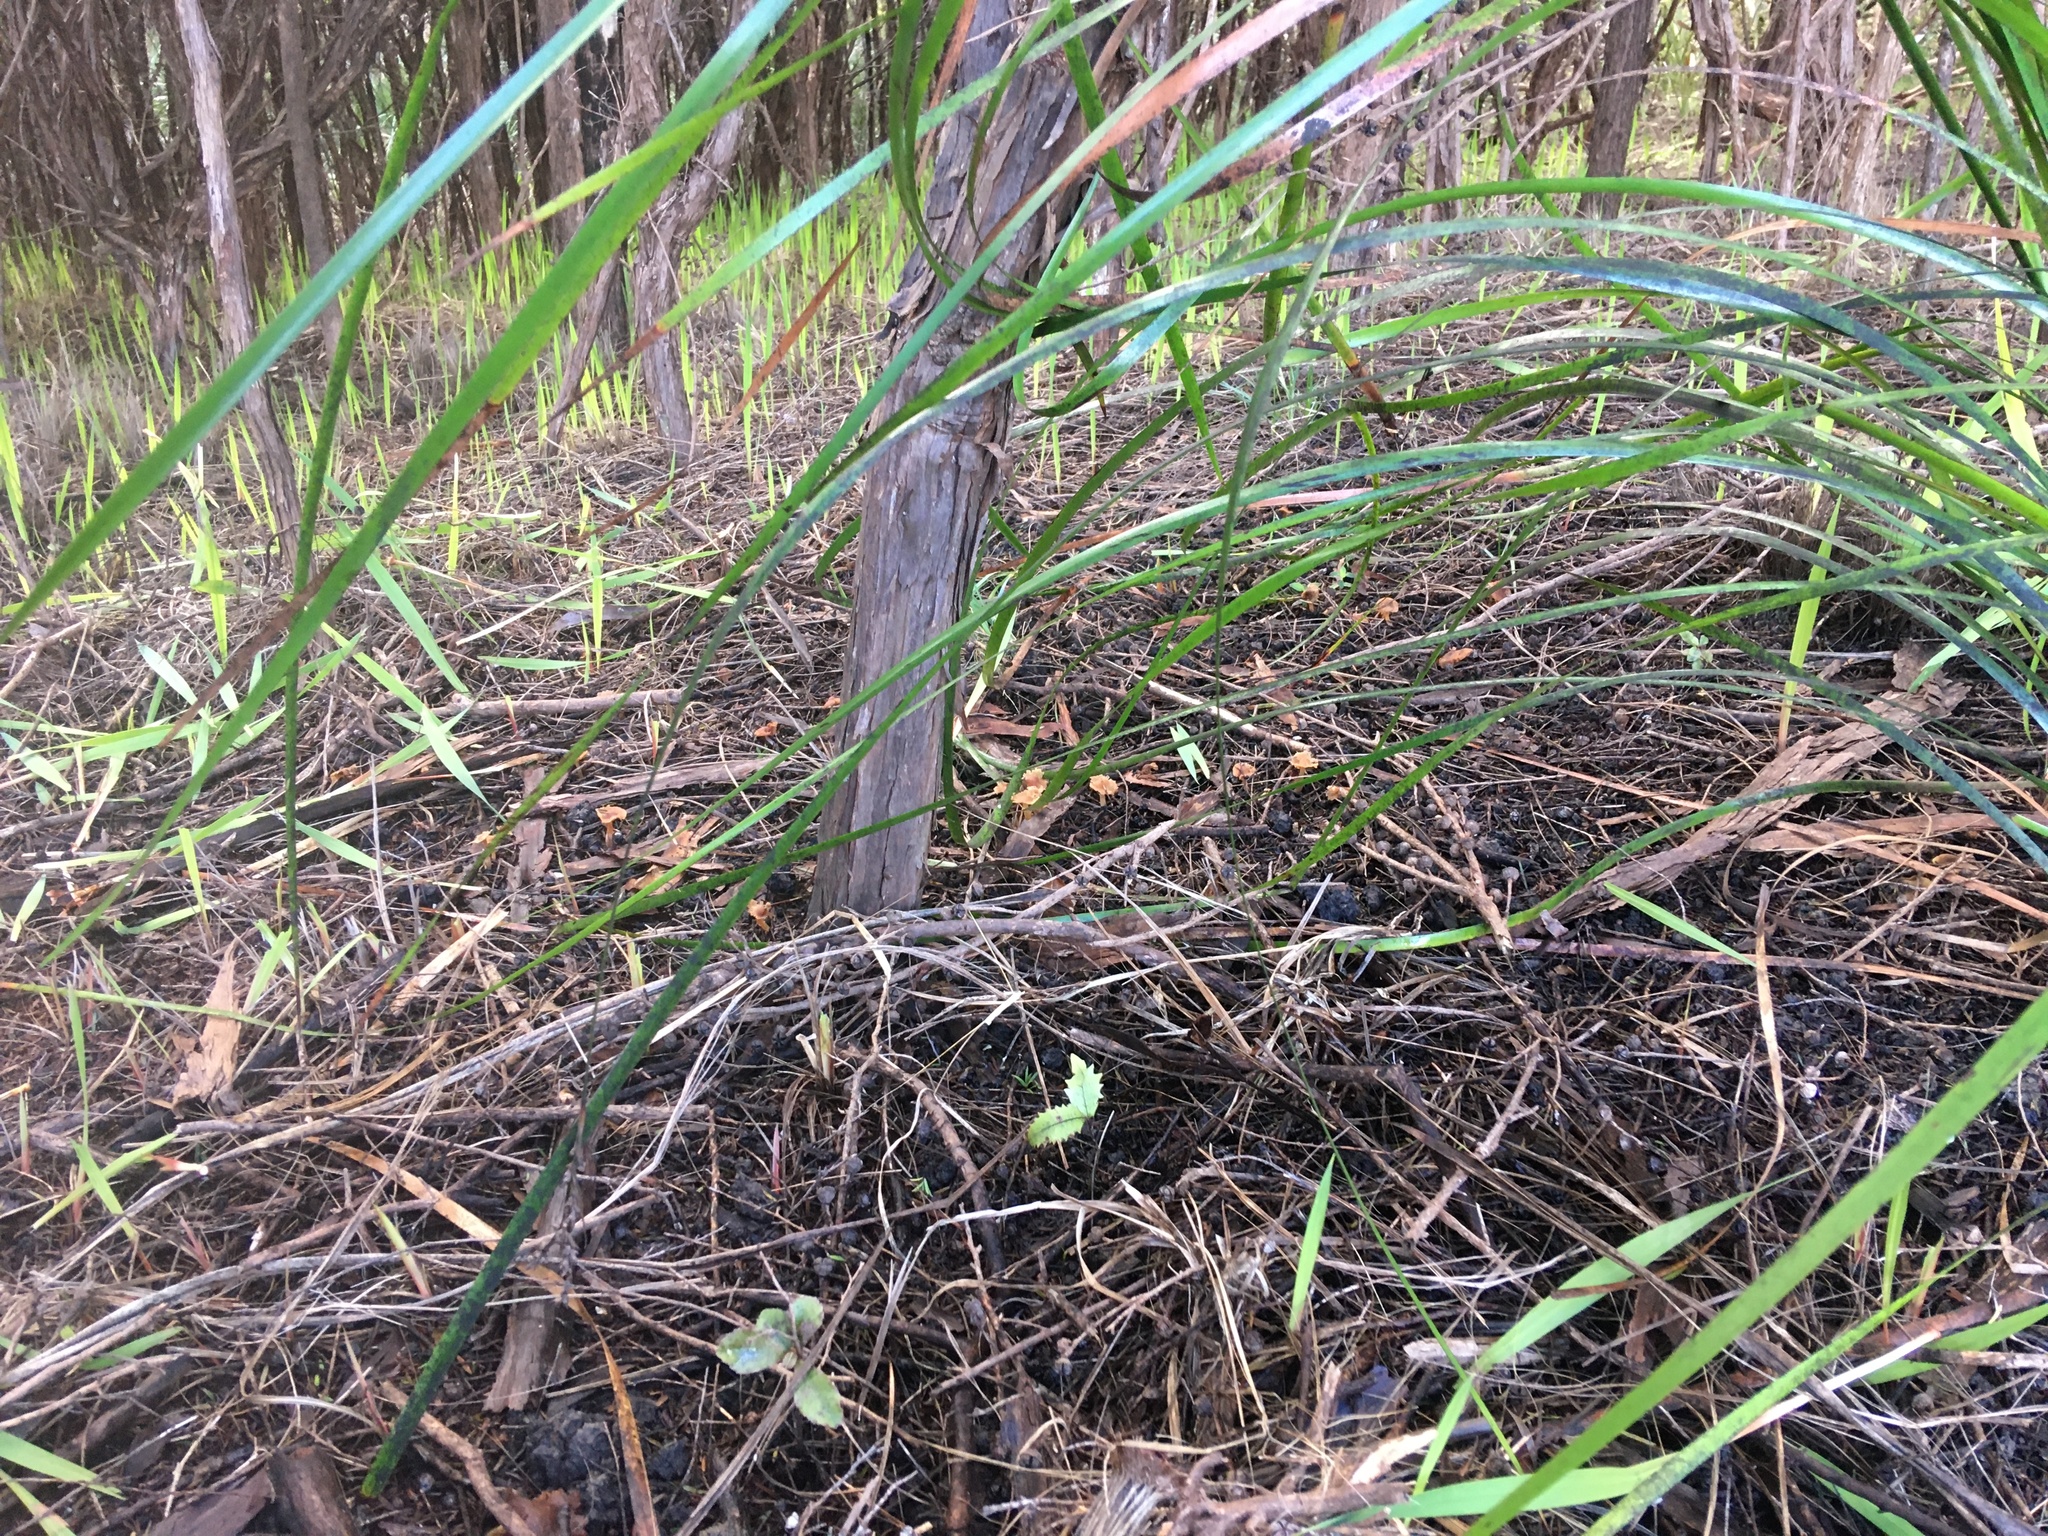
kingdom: Plantae
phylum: Tracheophyta
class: Magnoliopsida
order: Proteales
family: Proteaceae
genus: Knightia
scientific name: Knightia excelsa
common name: New zealand-honeysuckle
